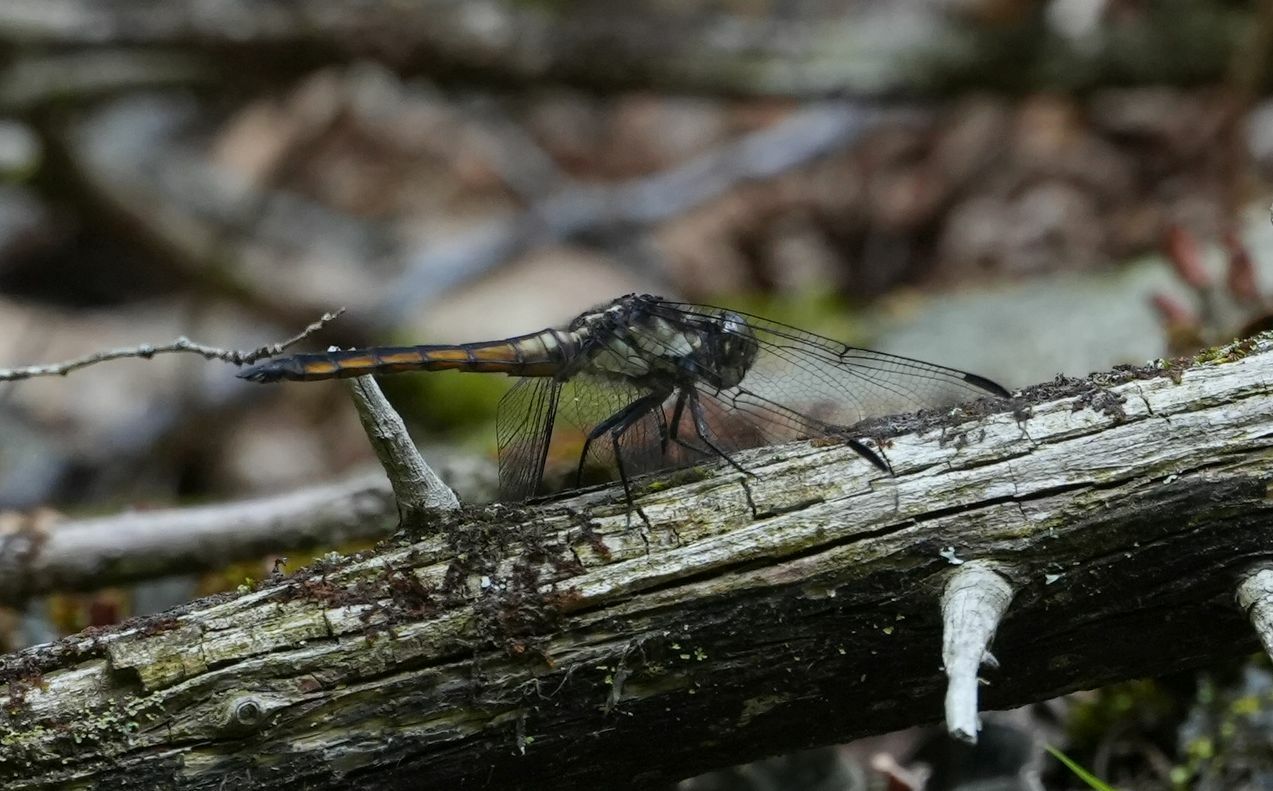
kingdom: Animalia
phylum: Arthropoda
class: Insecta
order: Odonata
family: Libellulidae
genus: Libellula
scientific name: Libellula incesta
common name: Slaty skimmer
